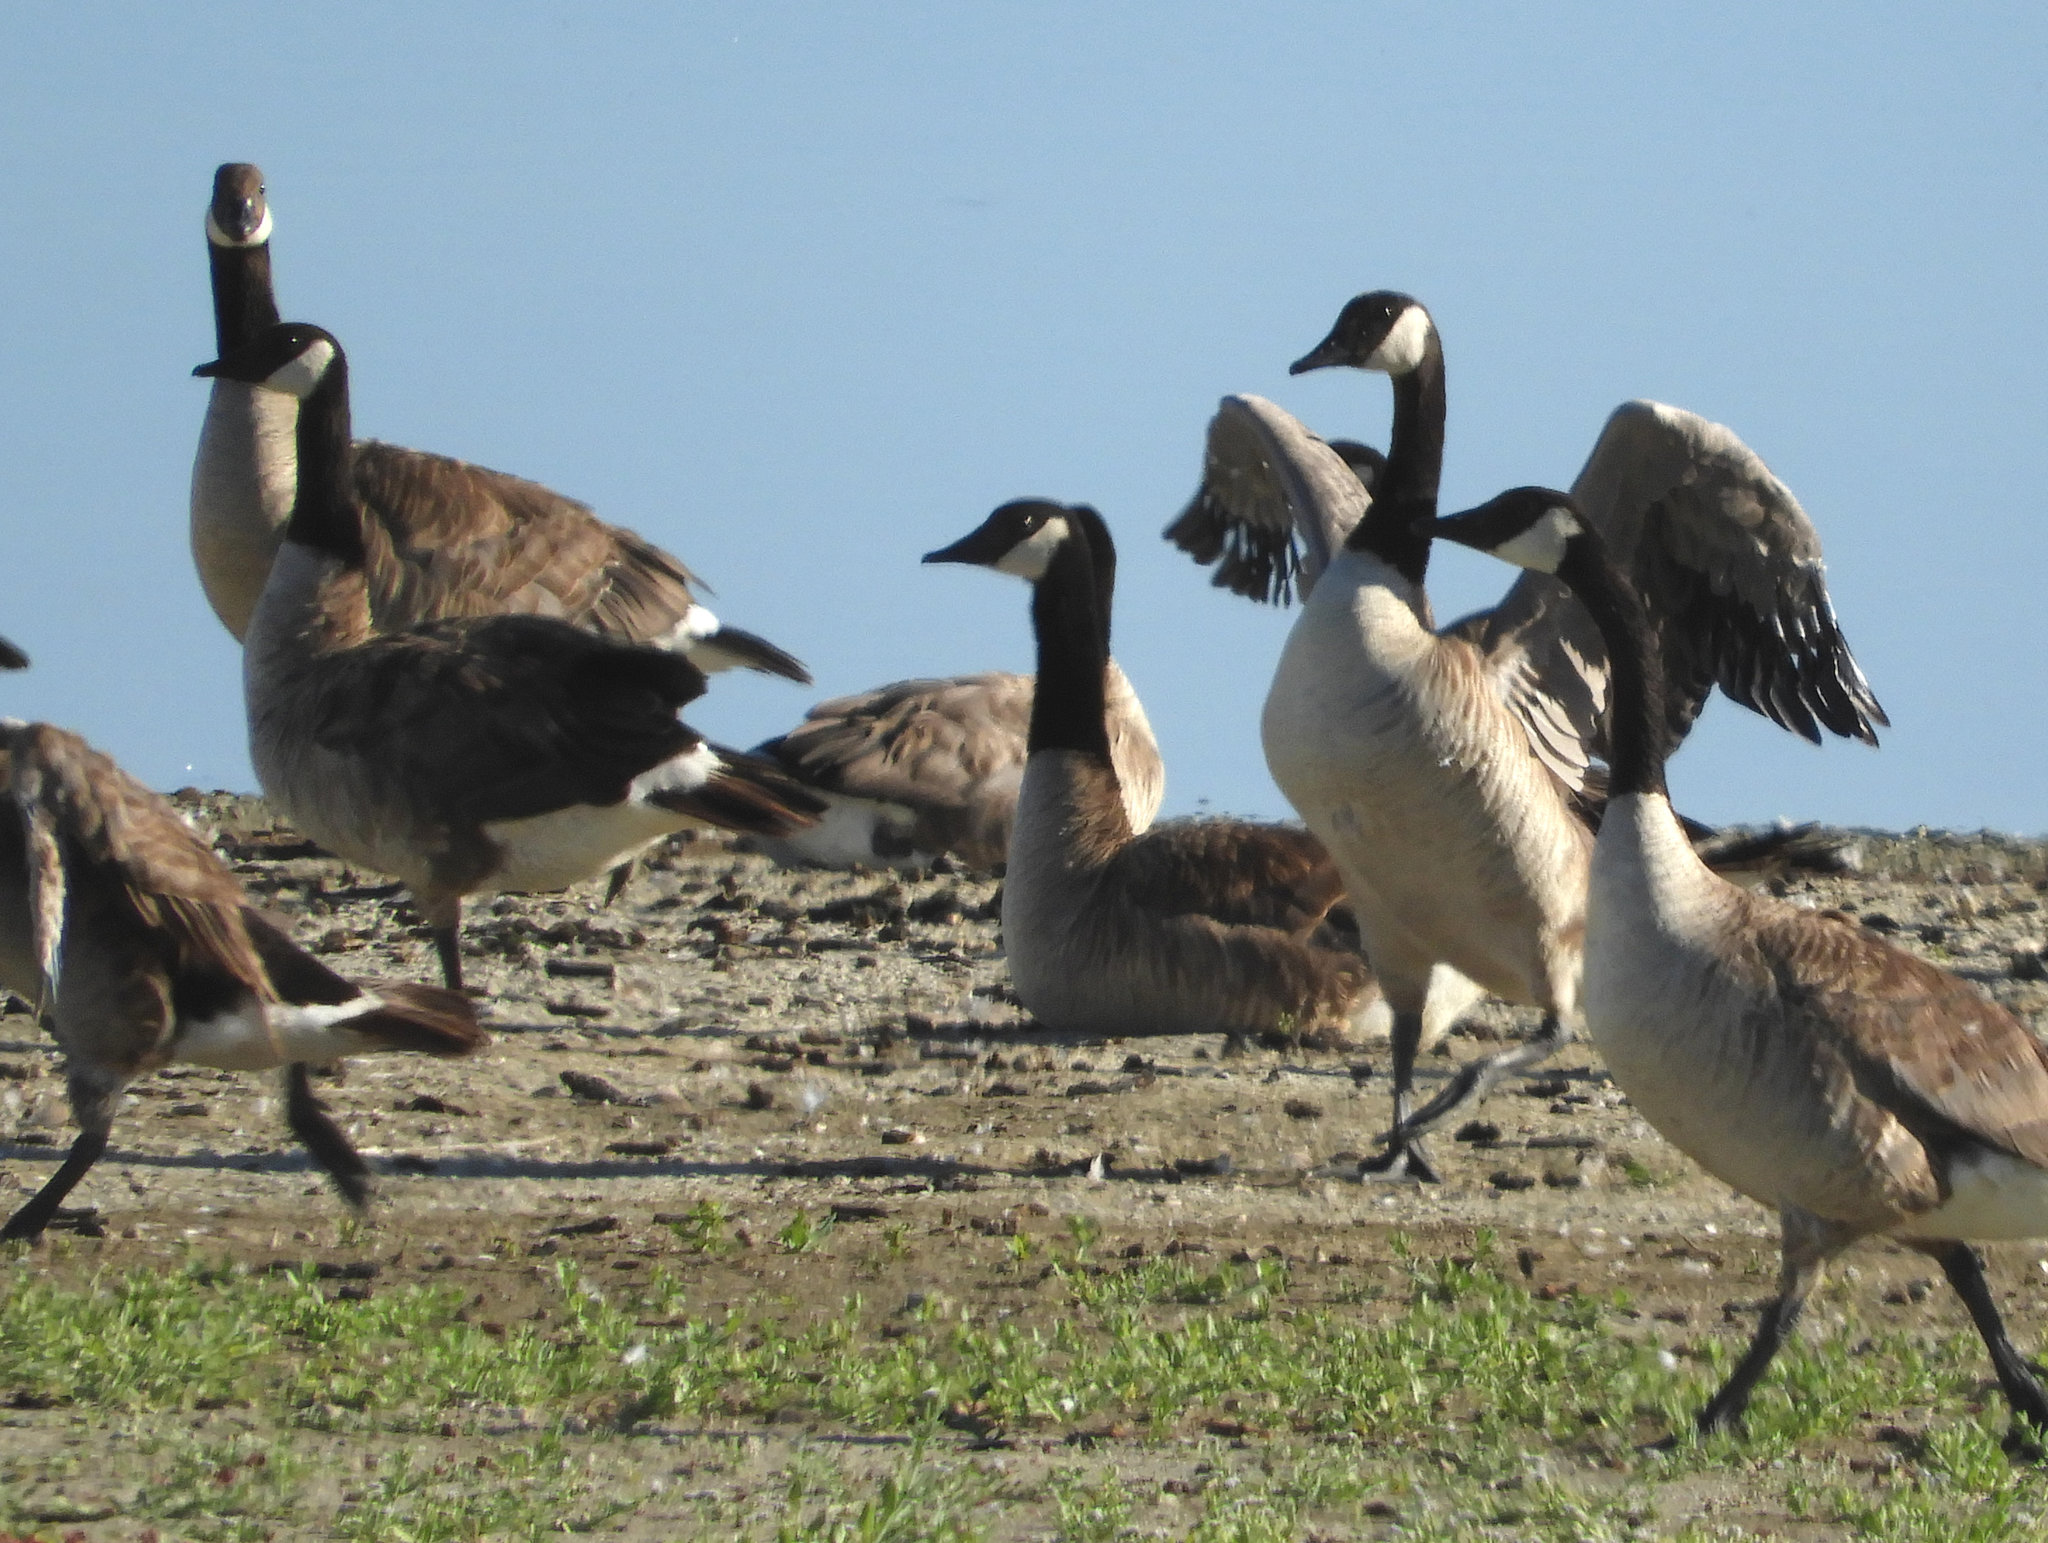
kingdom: Animalia
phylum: Chordata
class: Aves
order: Anseriformes
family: Anatidae
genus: Branta
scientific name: Branta canadensis
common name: Canada goose
